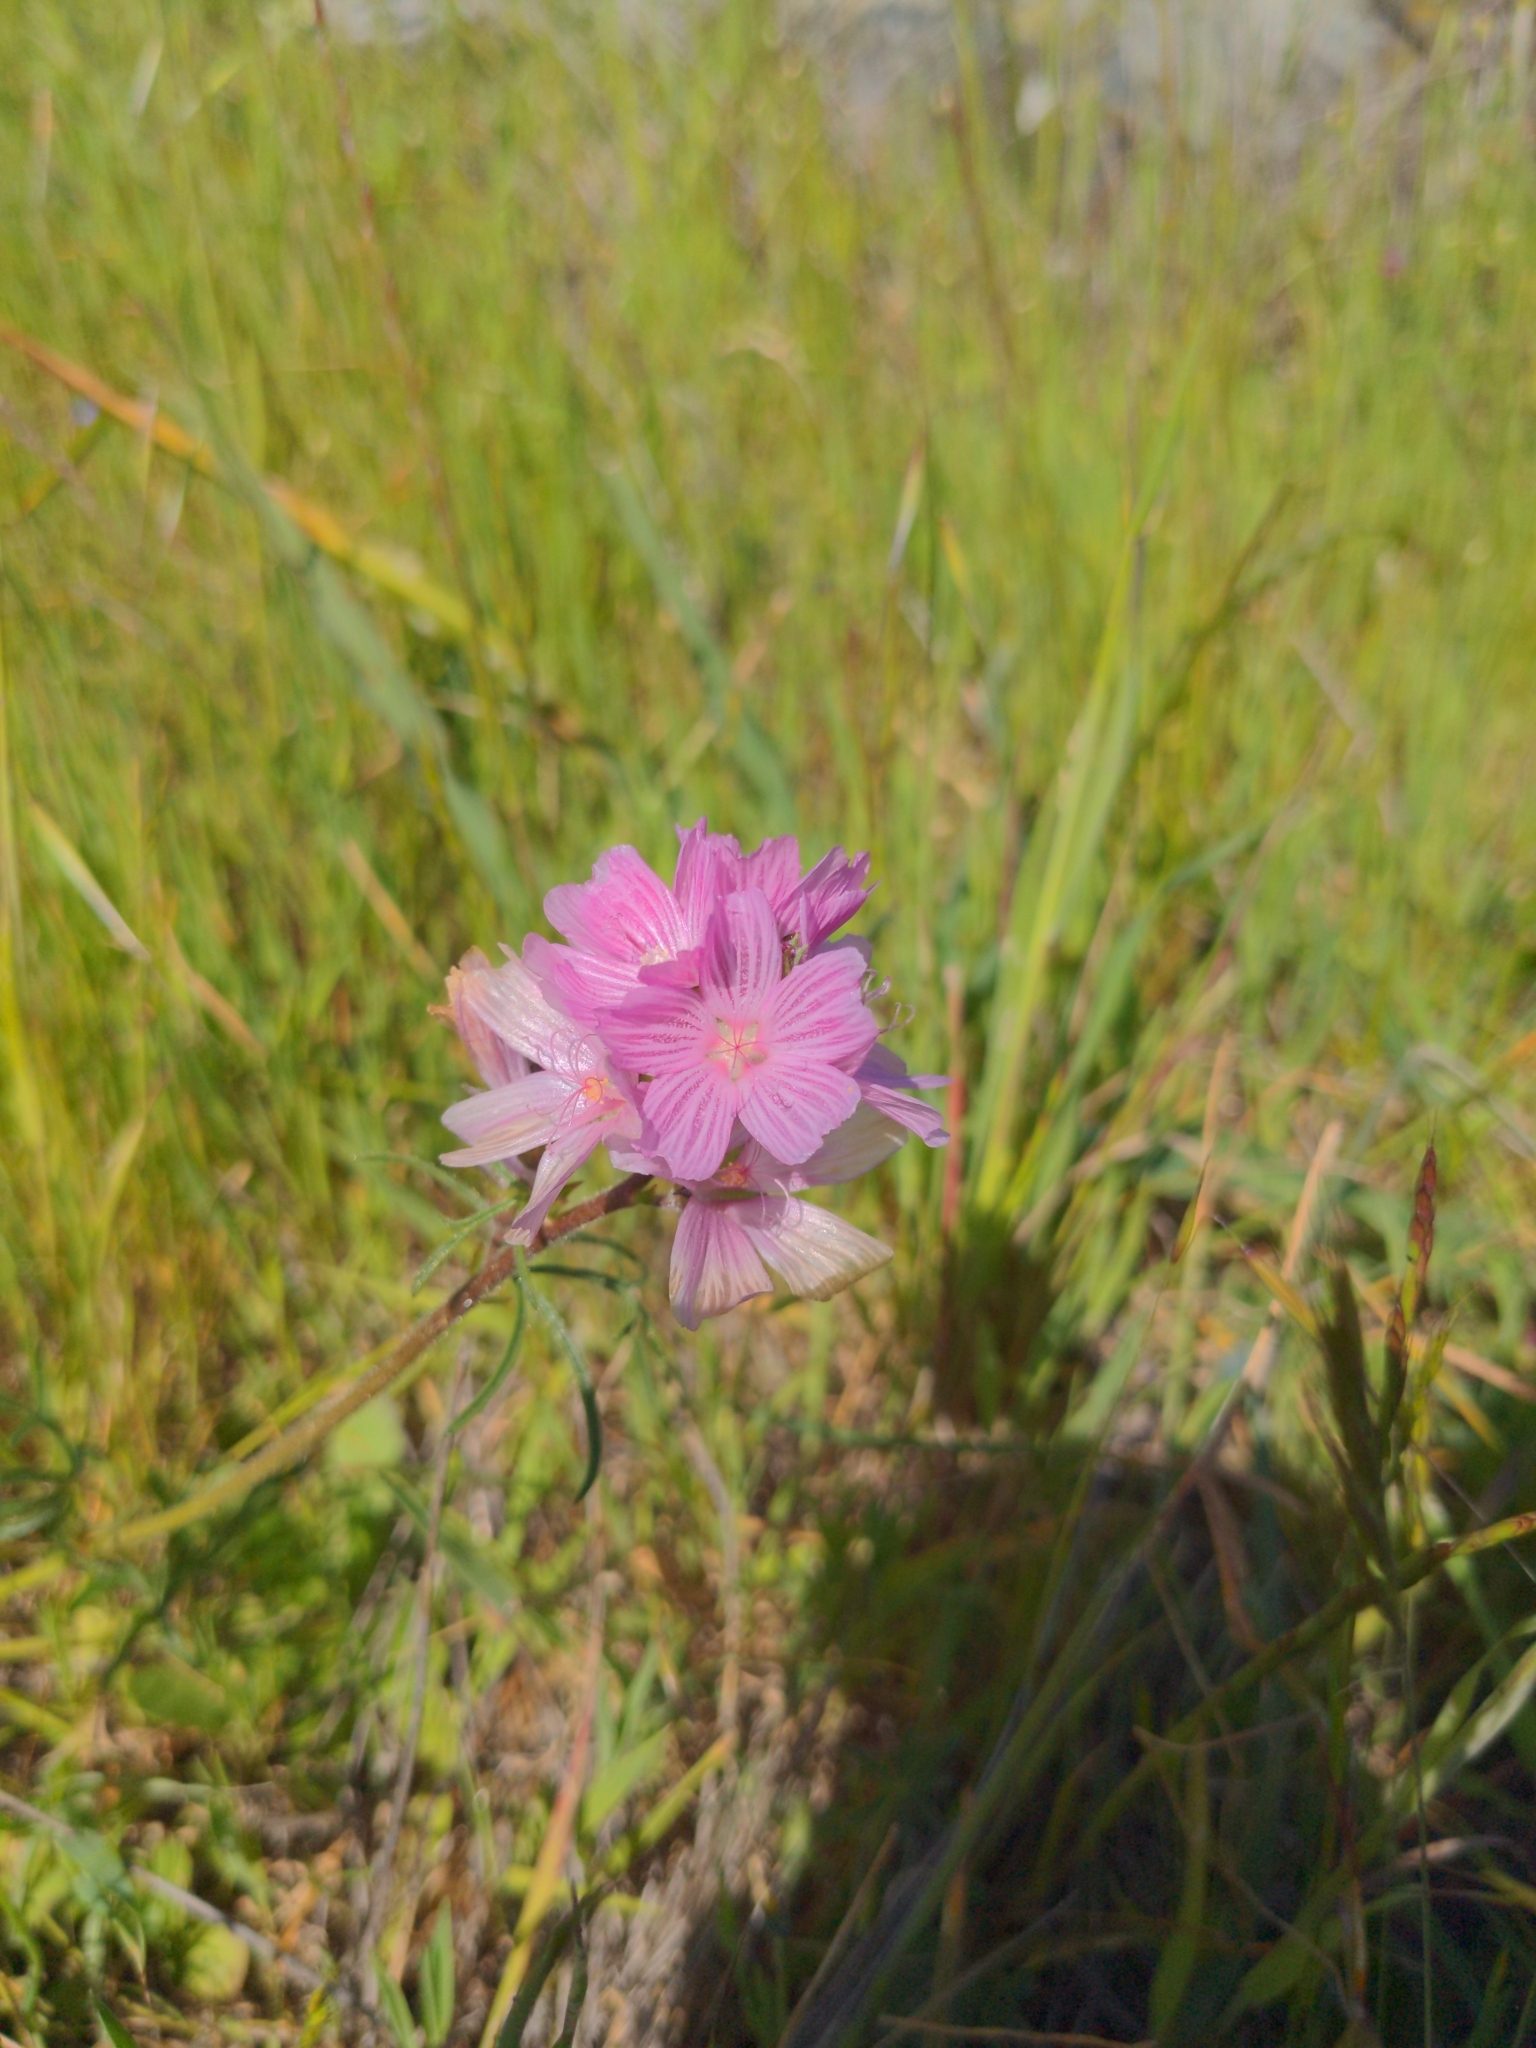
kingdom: Plantae
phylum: Tracheophyta
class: Magnoliopsida
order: Malvales
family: Malvaceae
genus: Sidalcea
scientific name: Sidalcea malviflora
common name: Greek mallow
